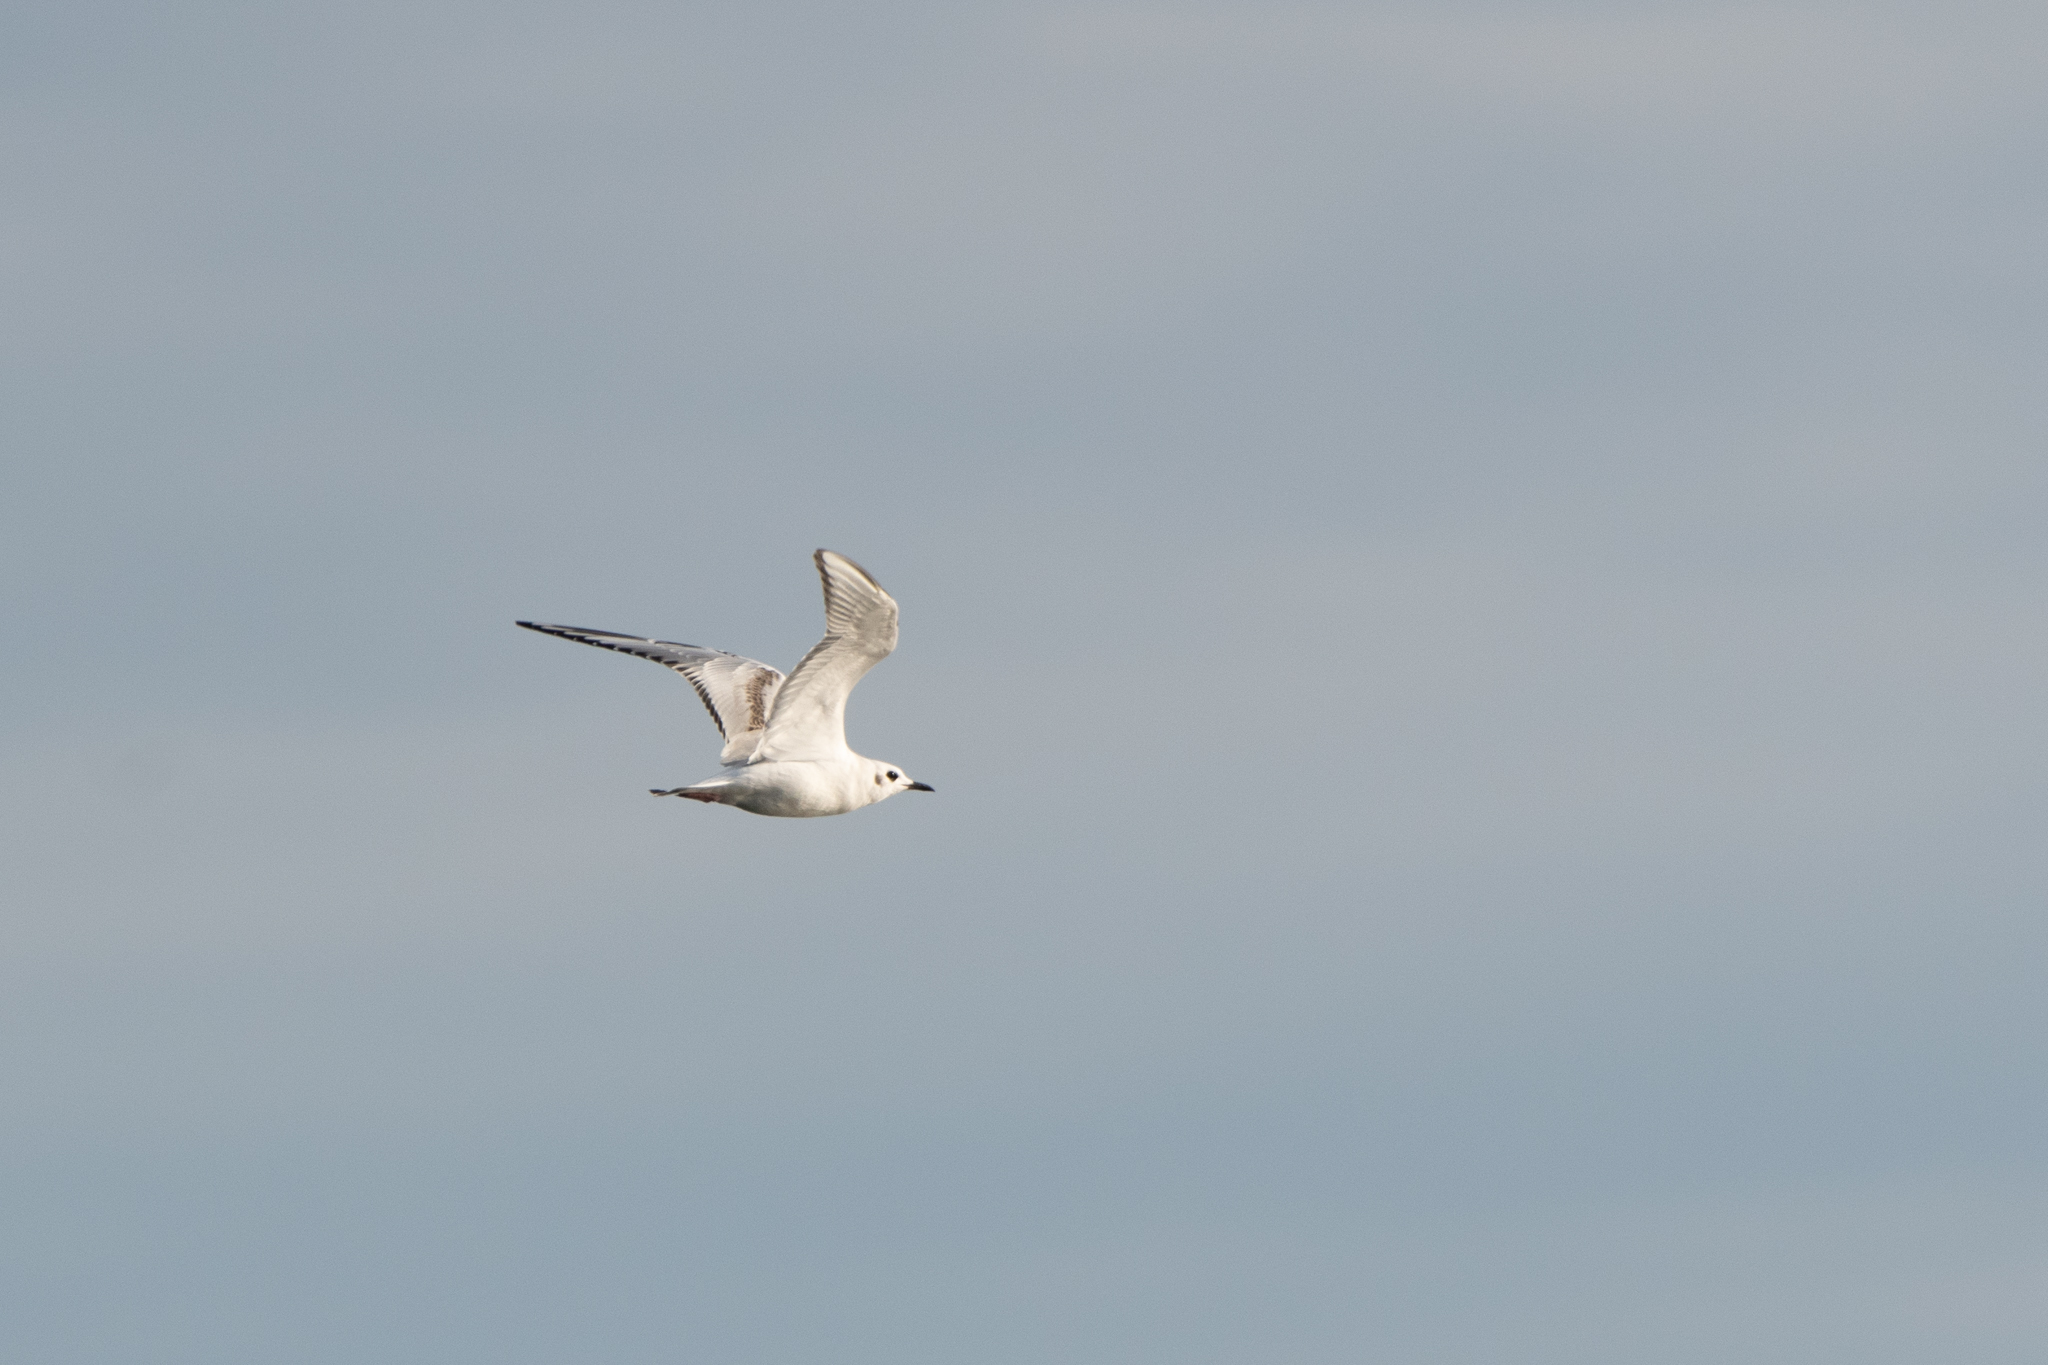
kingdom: Animalia
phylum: Chordata
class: Aves
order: Charadriiformes
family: Laridae
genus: Chroicocephalus
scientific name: Chroicocephalus philadelphia
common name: Bonaparte's gull
